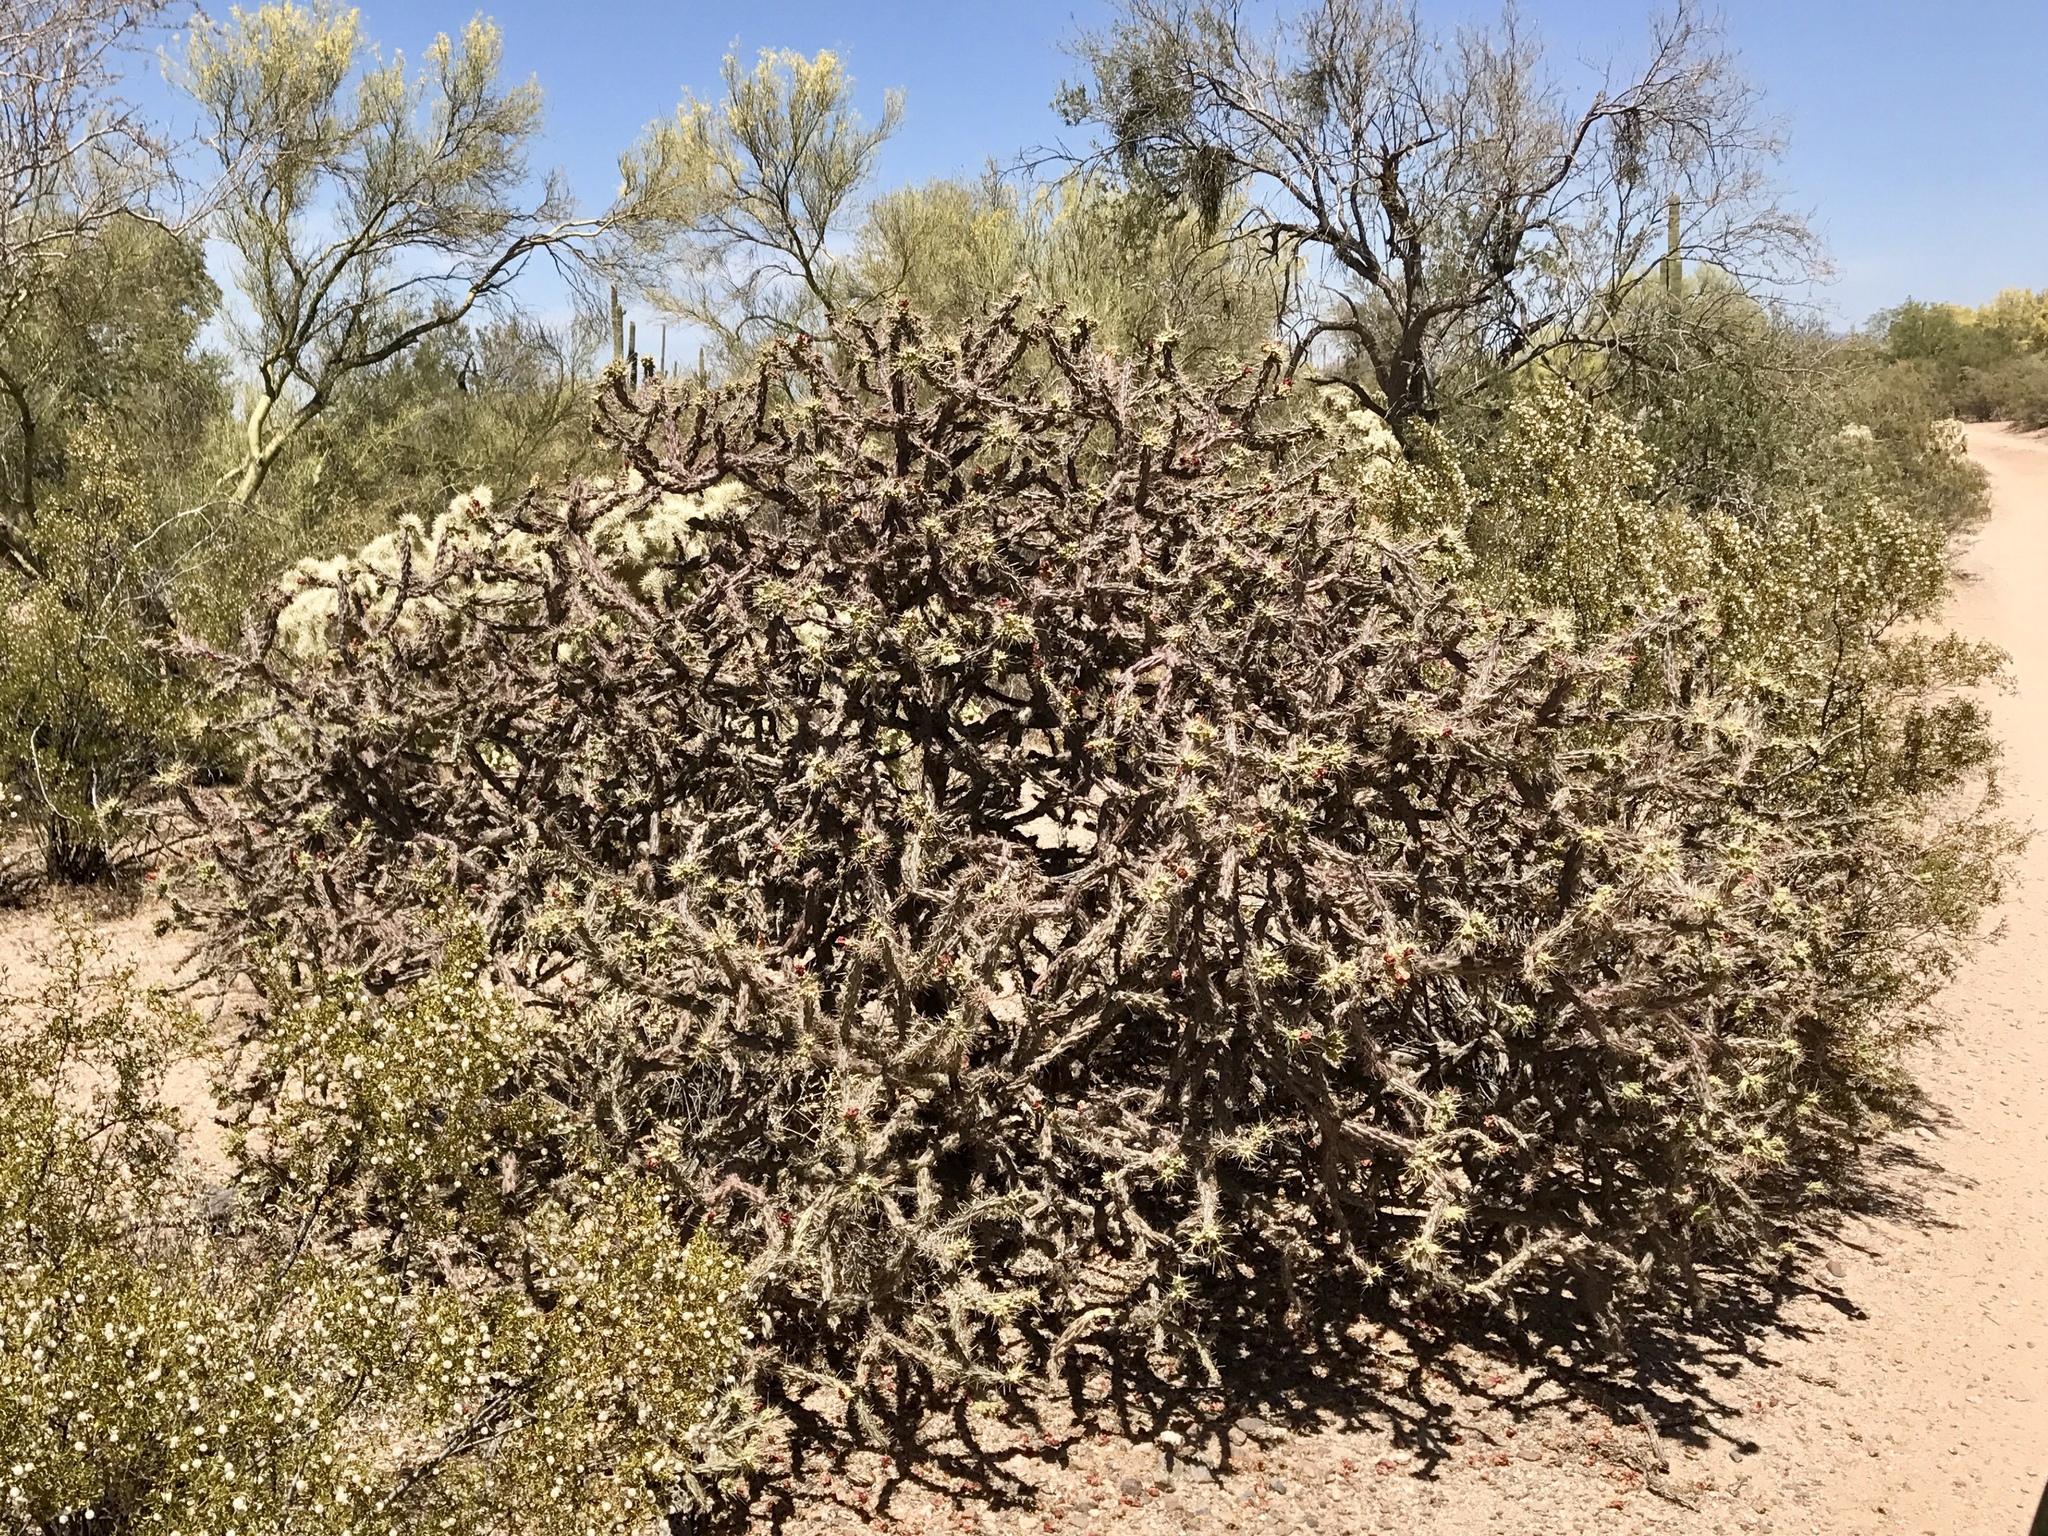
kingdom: Plantae
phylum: Tracheophyta
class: Magnoliopsida
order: Caryophyllales
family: Cactaceae
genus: Cylindropuntia
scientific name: Cylindropuntia thurberi
